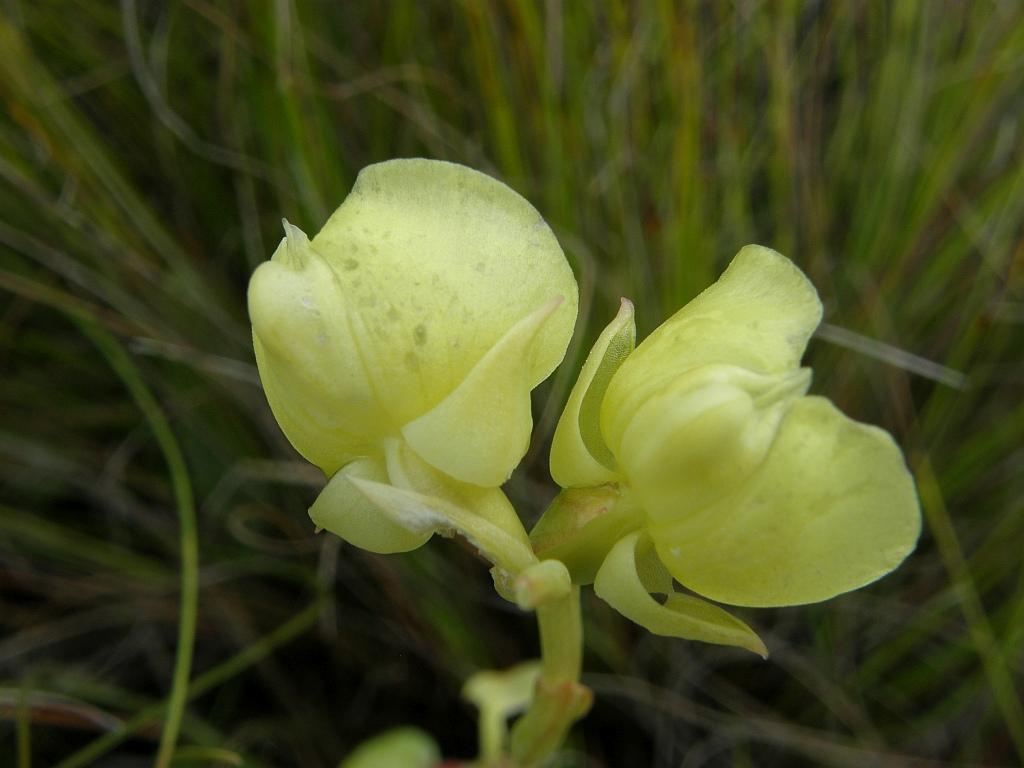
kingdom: Plantae
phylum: Tracheophyta
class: Liliopsida
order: Asparagales
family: Orchidaceae
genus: Pterygodium
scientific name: Pterygodium catholicum
